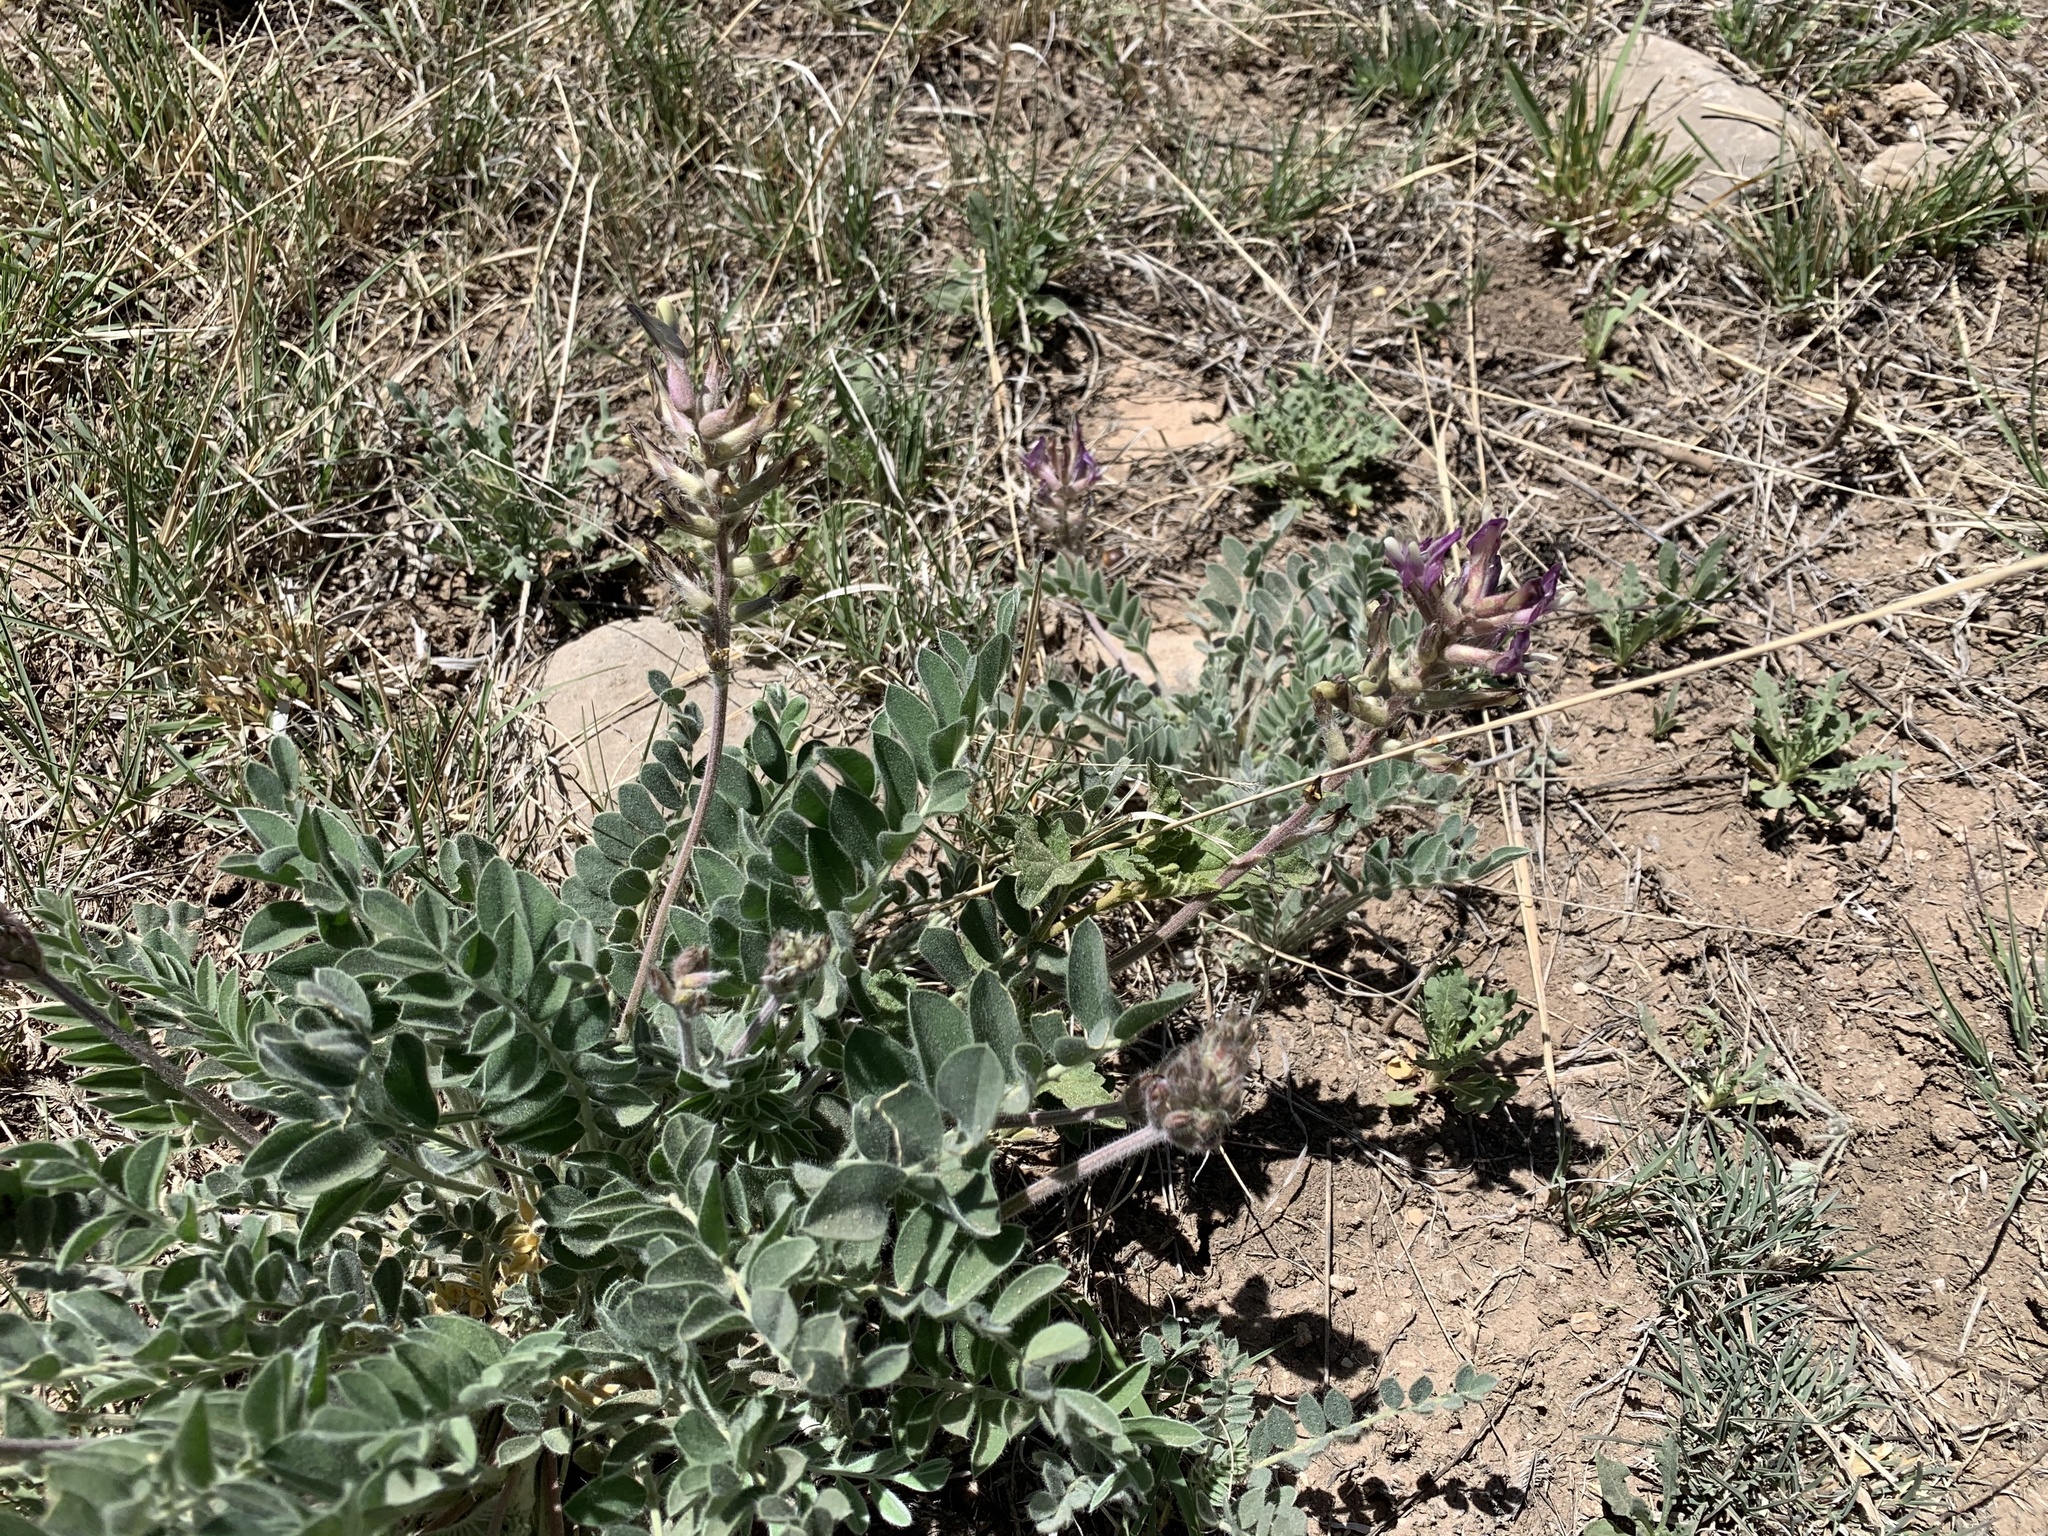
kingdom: Plantae
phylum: Tracheophyta
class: Magnoliopsida
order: Fabales
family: Fabaceae
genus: Astragalus
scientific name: Astragalus mollissimus
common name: Woolly locoweed
